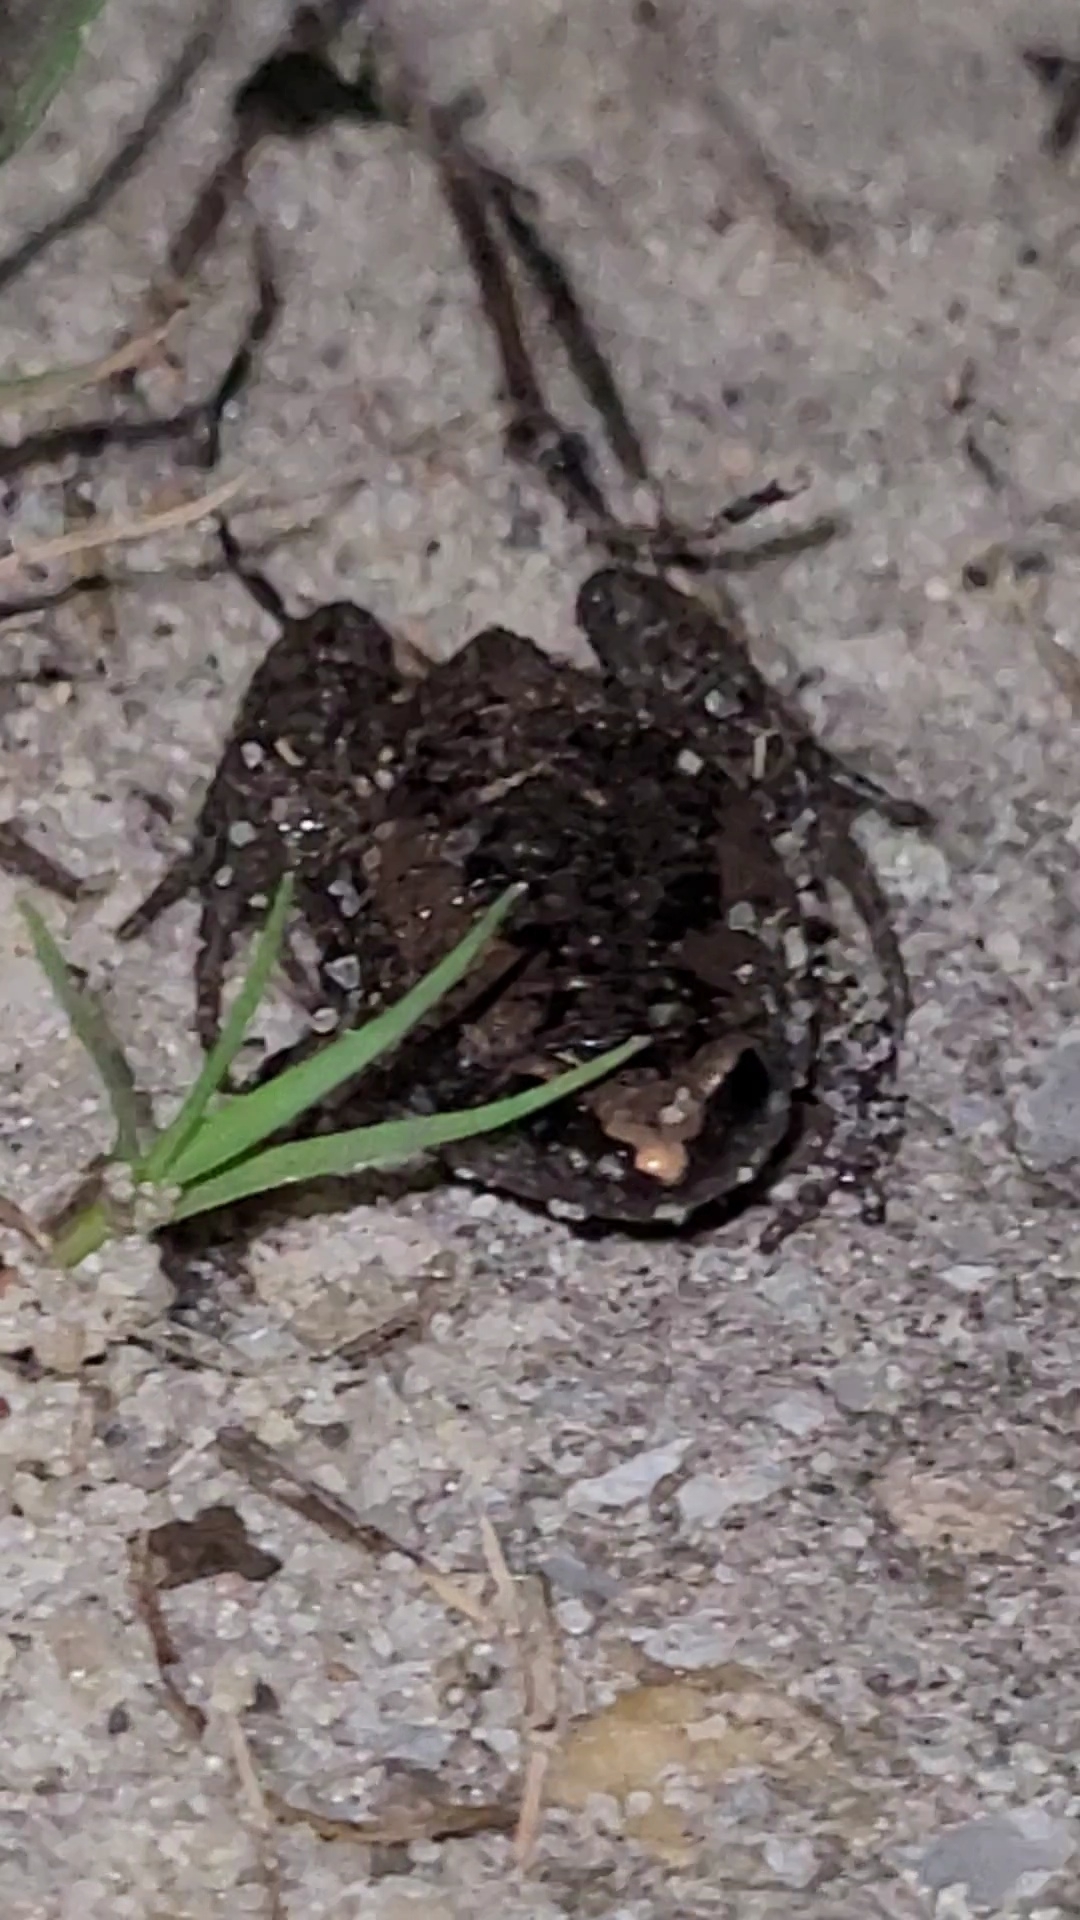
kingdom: Animalia
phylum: Chordata
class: Amphibia
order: Anura
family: Microhylidae
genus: Gastrophryne
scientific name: Gastrophryne carolinensis
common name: Eastern narrowmouth toad
